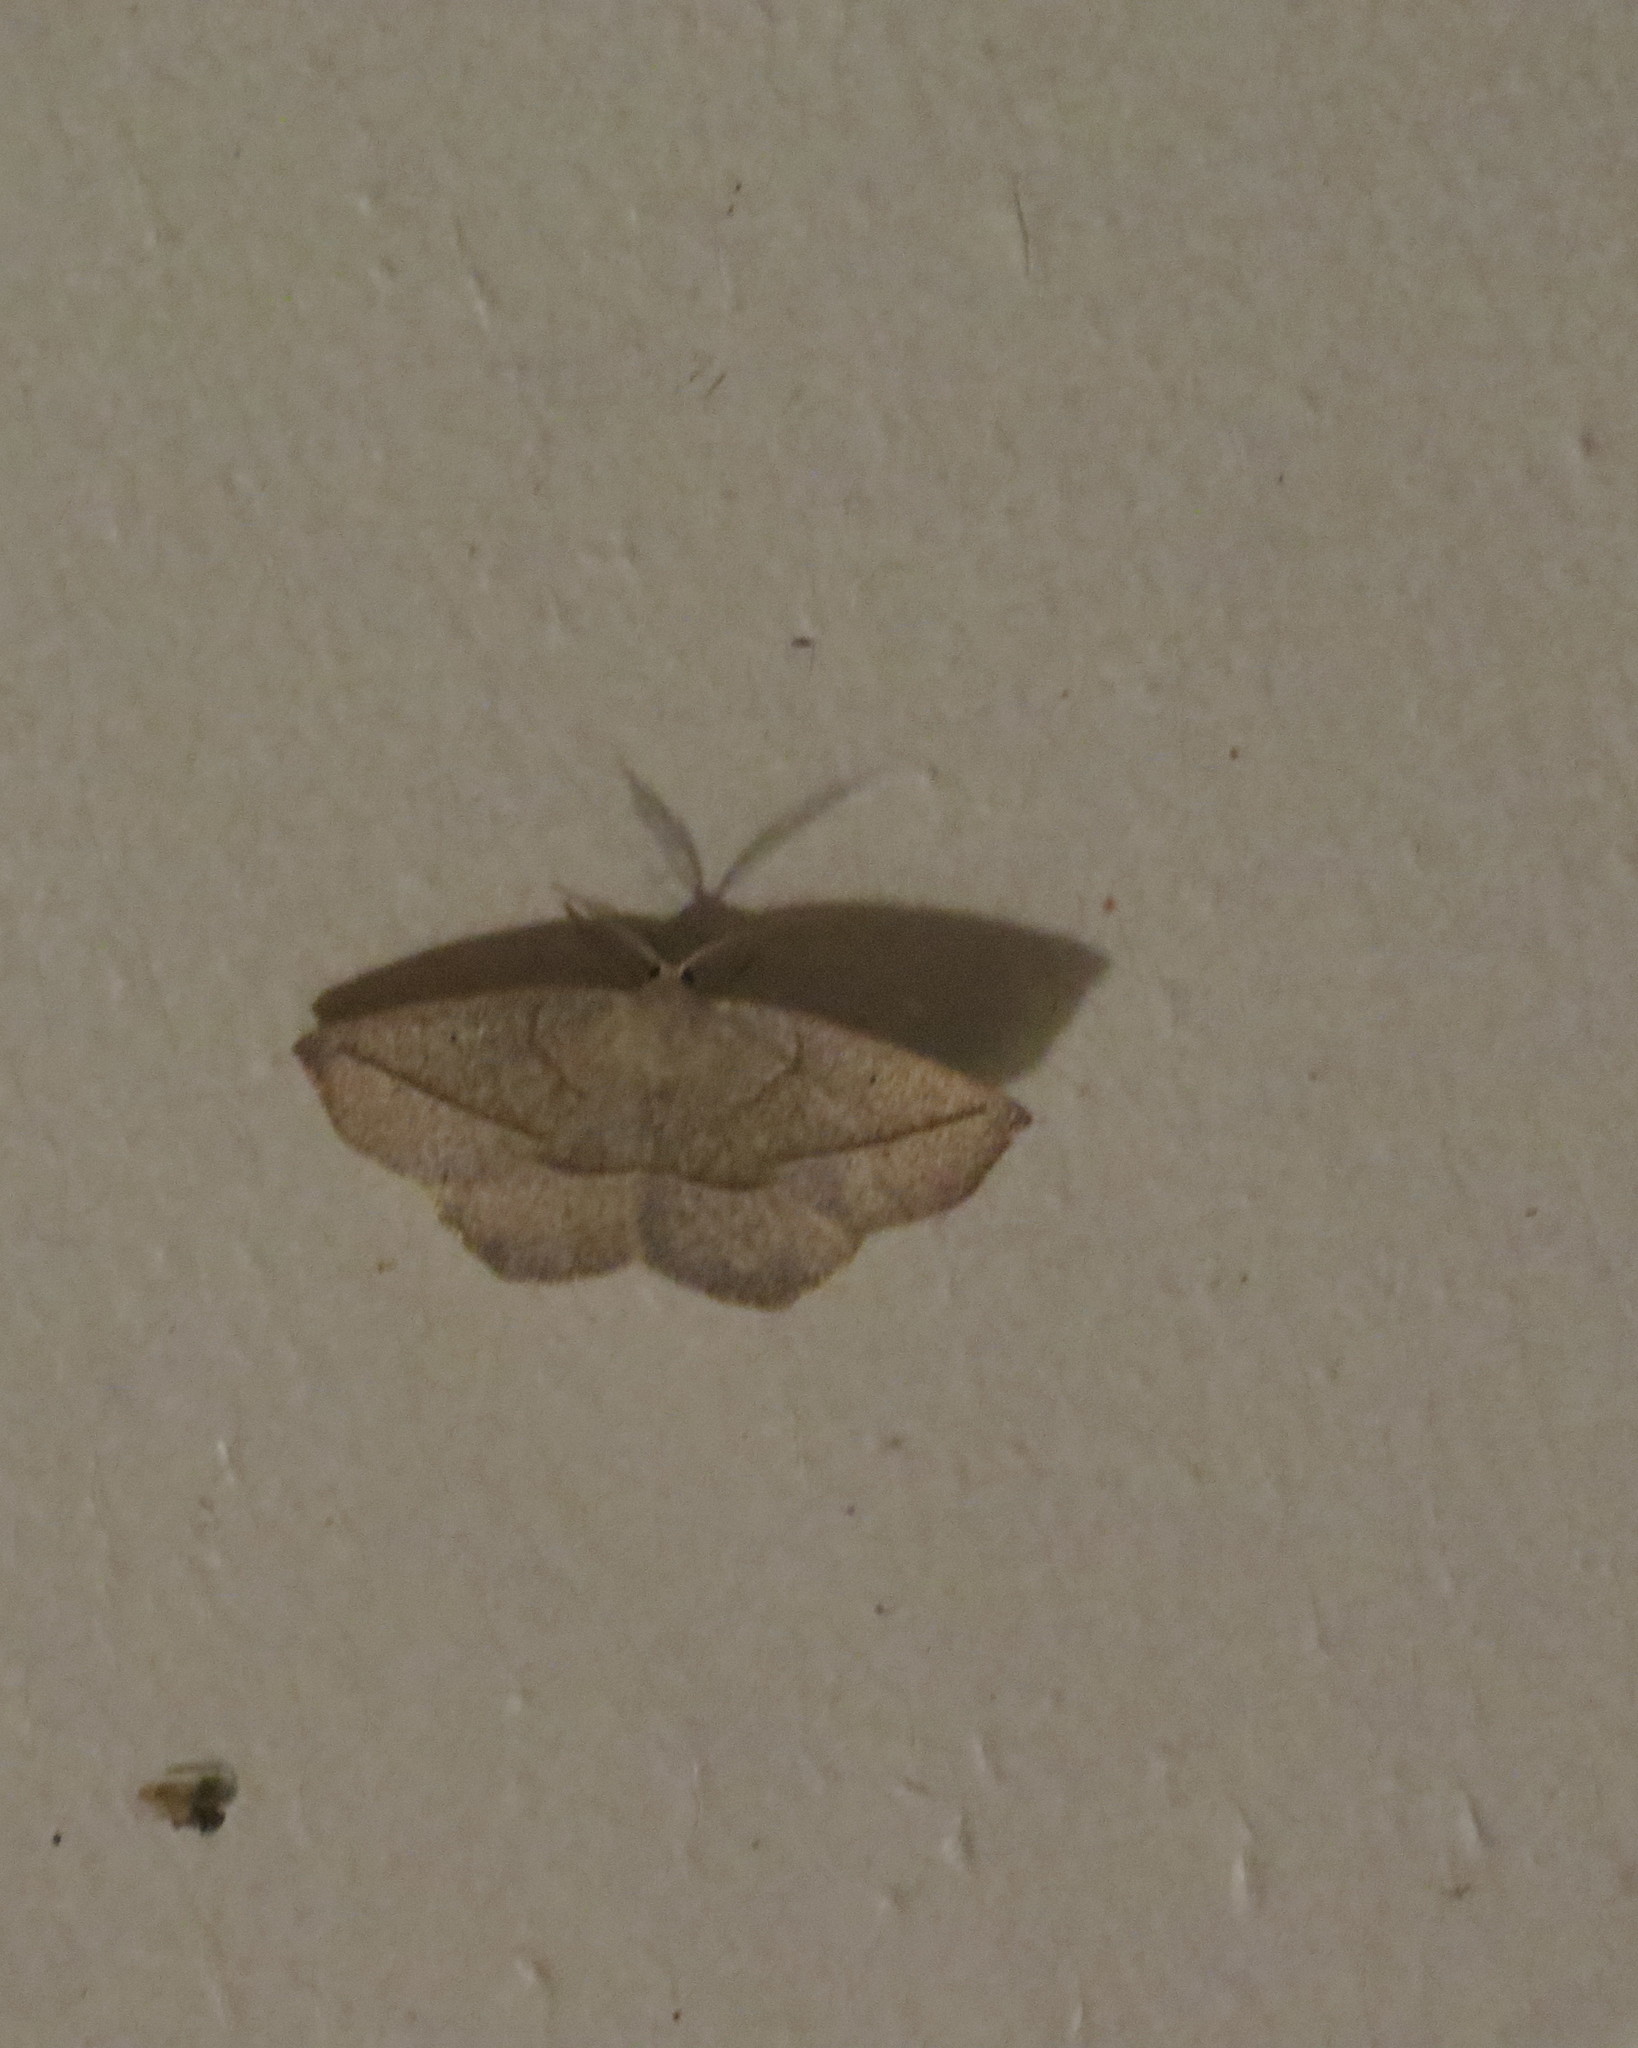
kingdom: Animalia
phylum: Arthropoda
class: Insecta
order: Lepidoptera
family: Geometridae
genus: Eusarca
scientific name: Eusarca confusaria
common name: Confused eusarca
